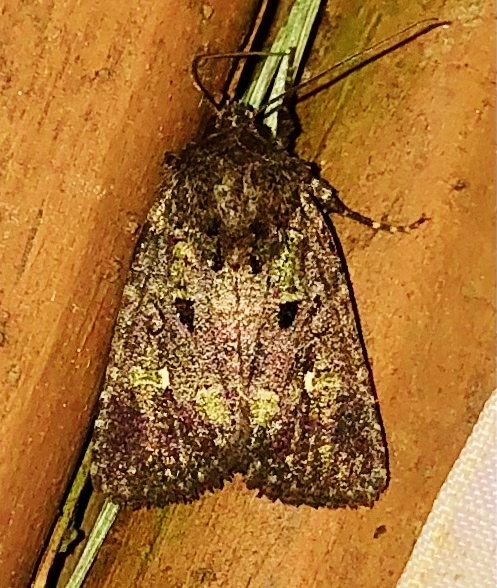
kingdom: Animalia
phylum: Arthropoda
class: Insecta
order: Lepidoptera
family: Noctuidae
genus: Lacinipolia
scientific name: Lacinipolia renigera
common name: Kidney-spotted minor
